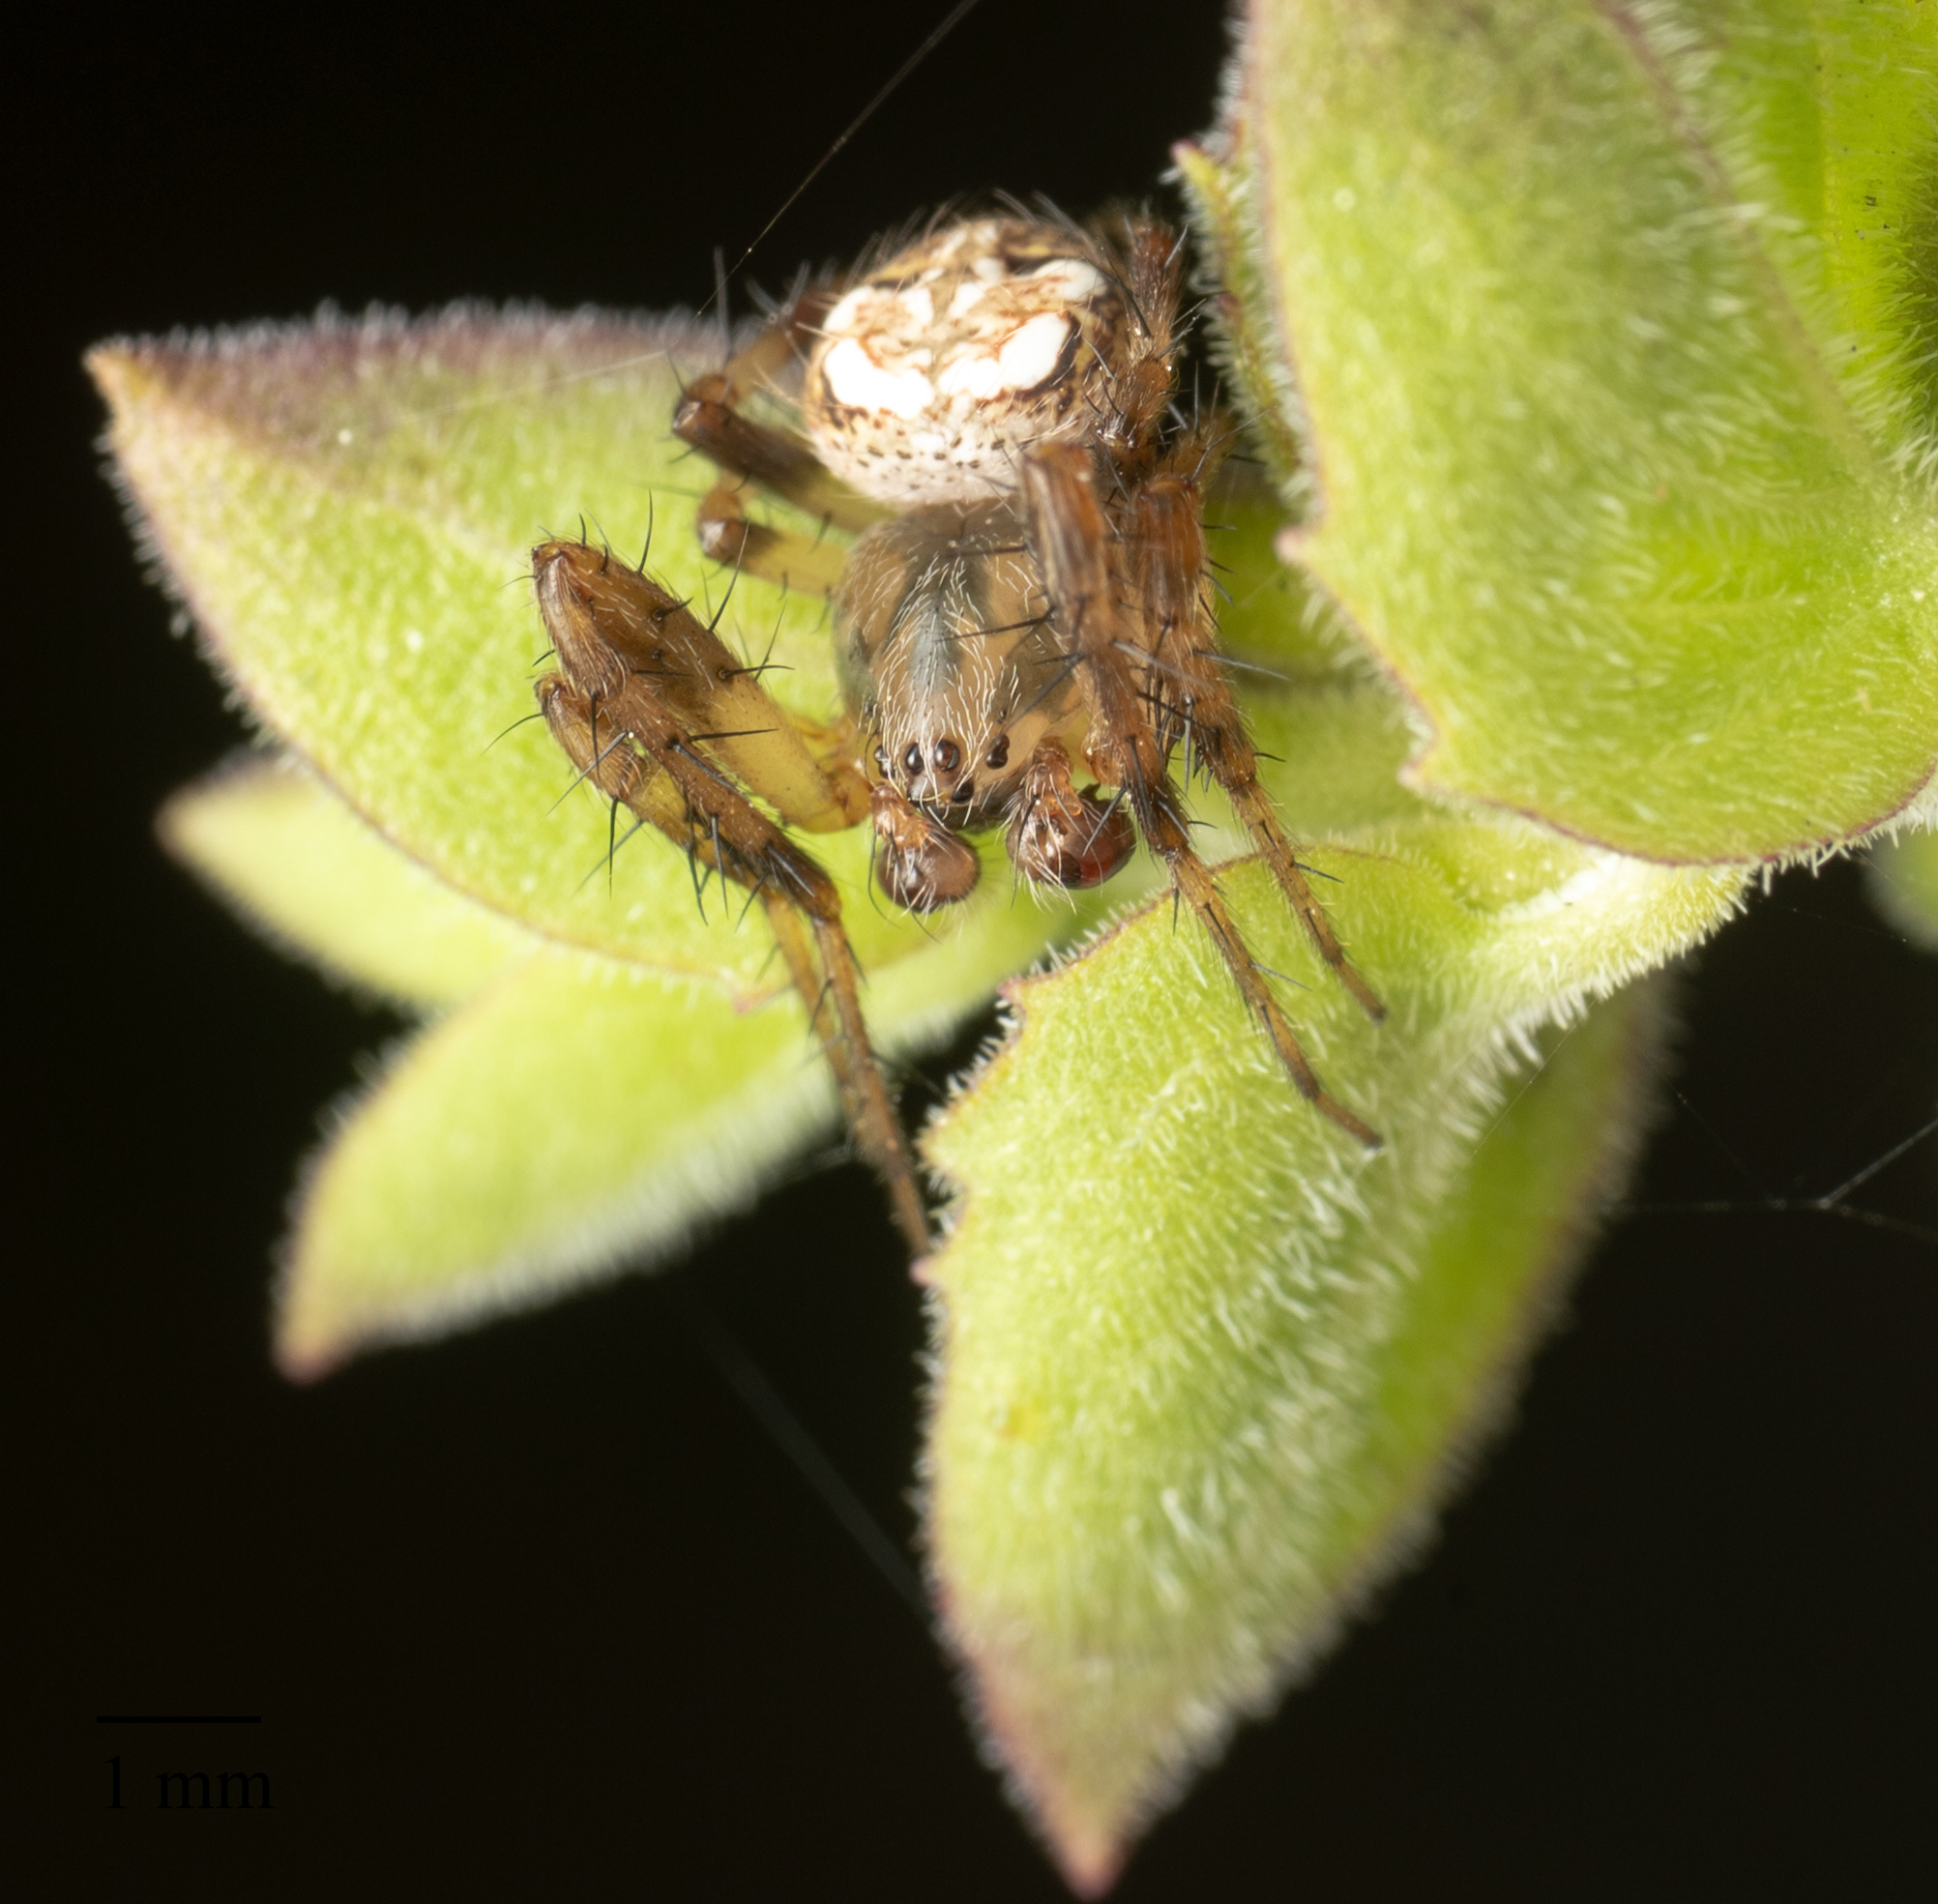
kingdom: Animalia
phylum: Arthropoda
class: Arachnida
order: Araneae
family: Araneidae
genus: Araneus
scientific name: Araneus pegnia
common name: Orb weavers
